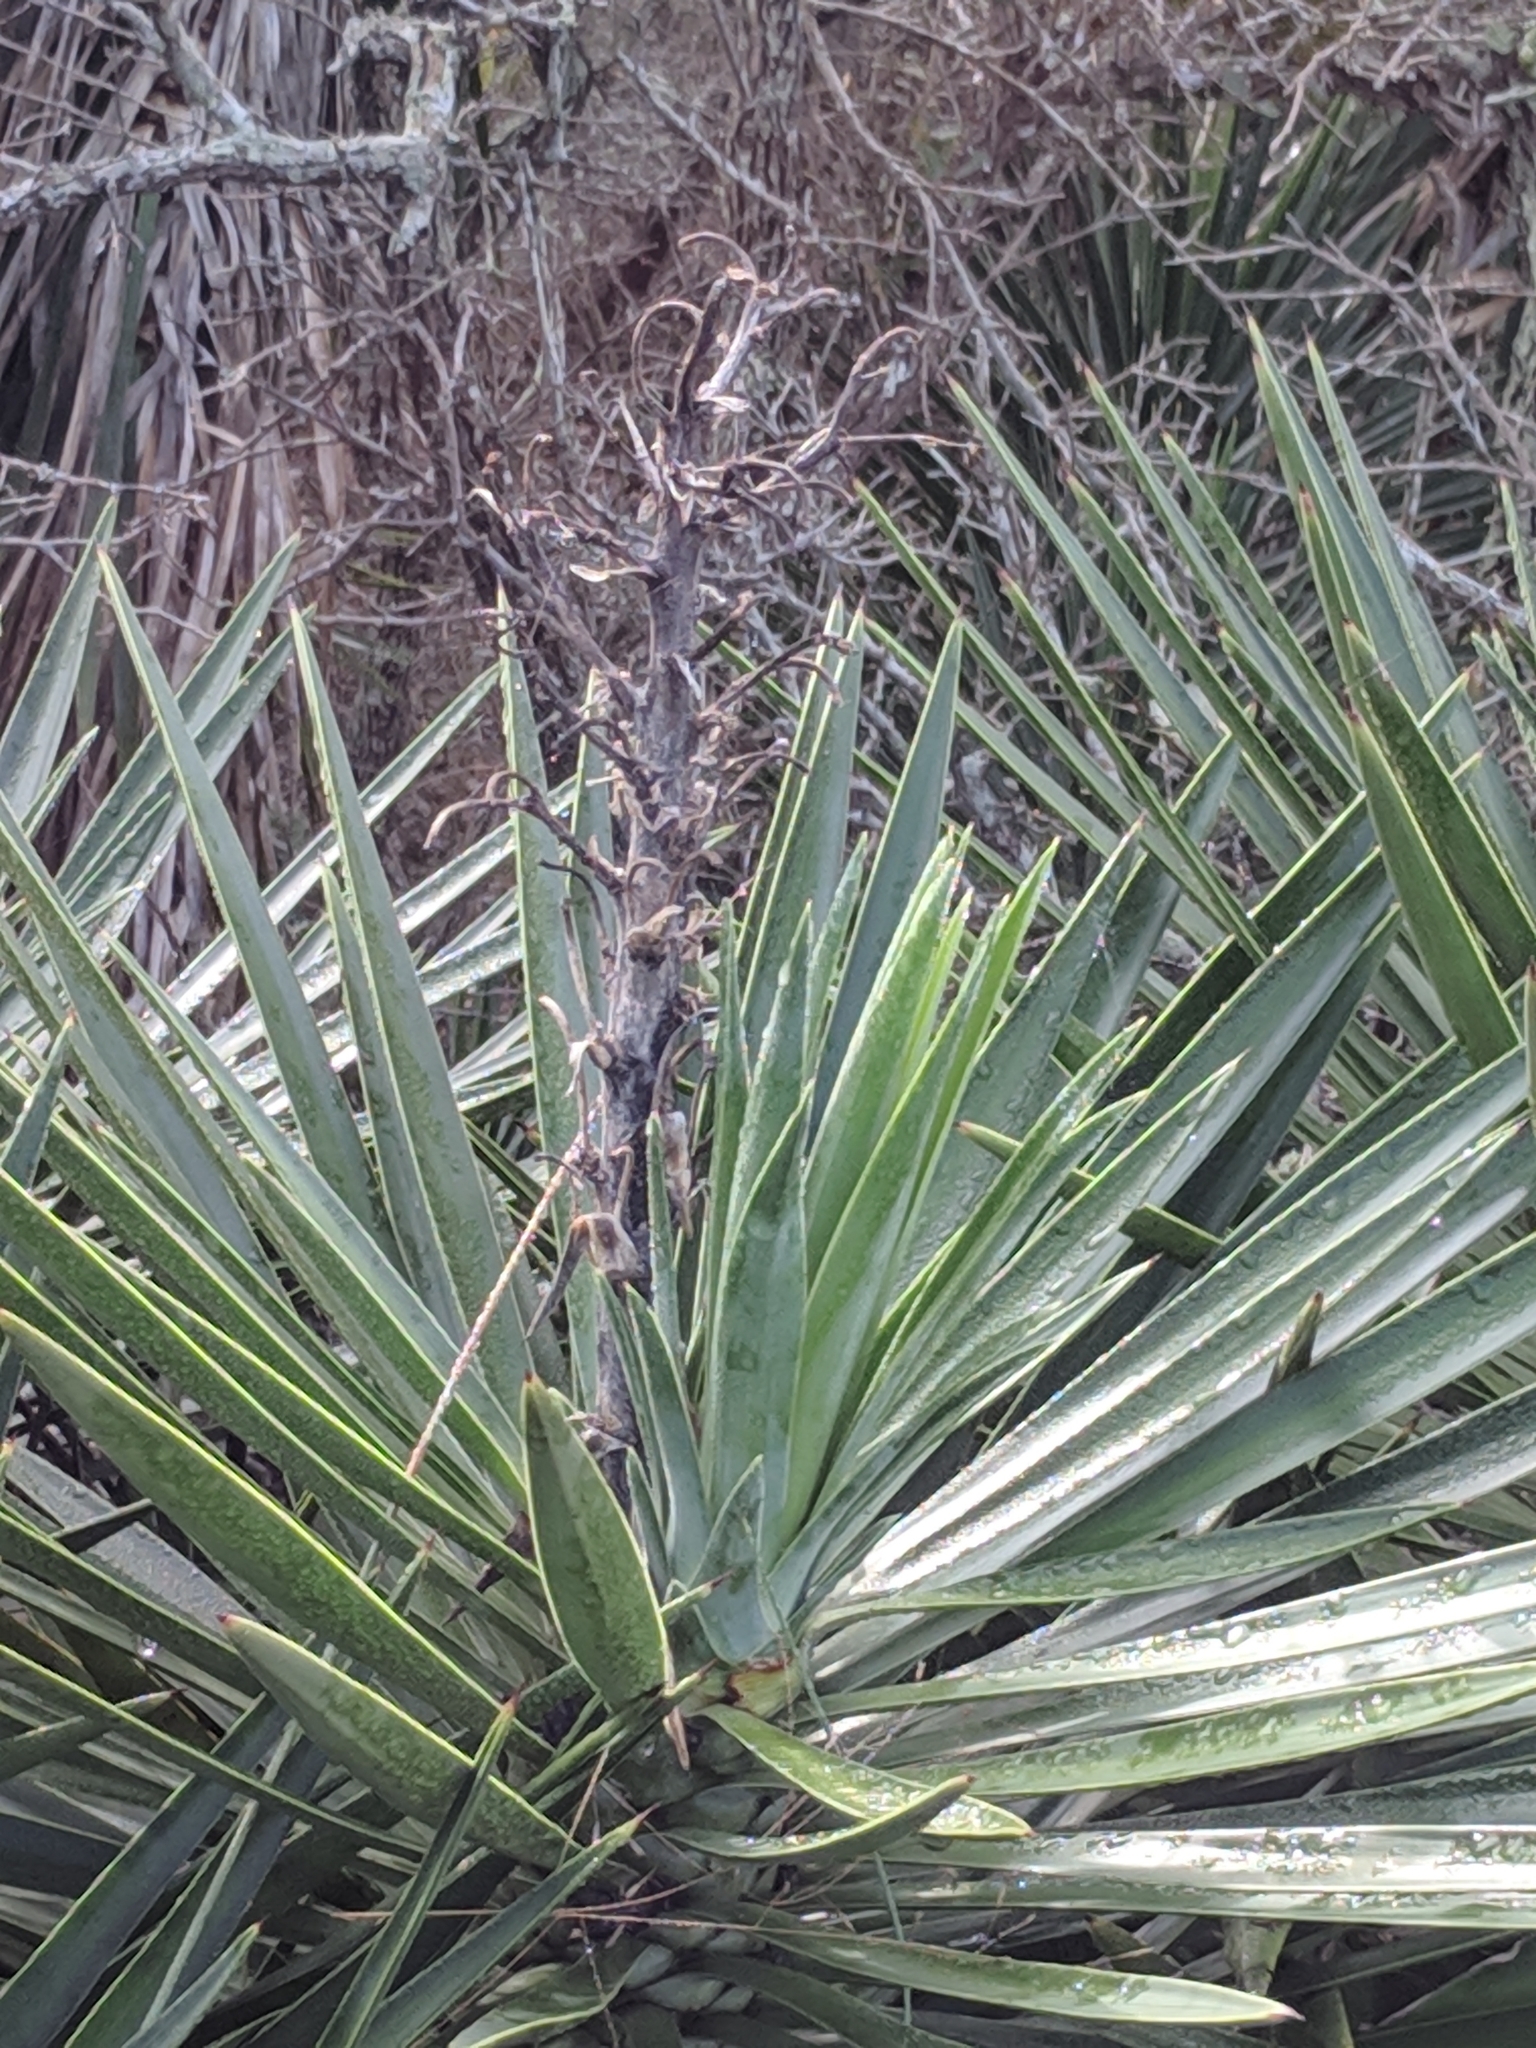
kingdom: Plantae
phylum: Tracheophyta
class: Liliopsida
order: Asparagales
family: Asparagaceae
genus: Yucca
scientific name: Yucca aloifolia
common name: Aloe yucca
